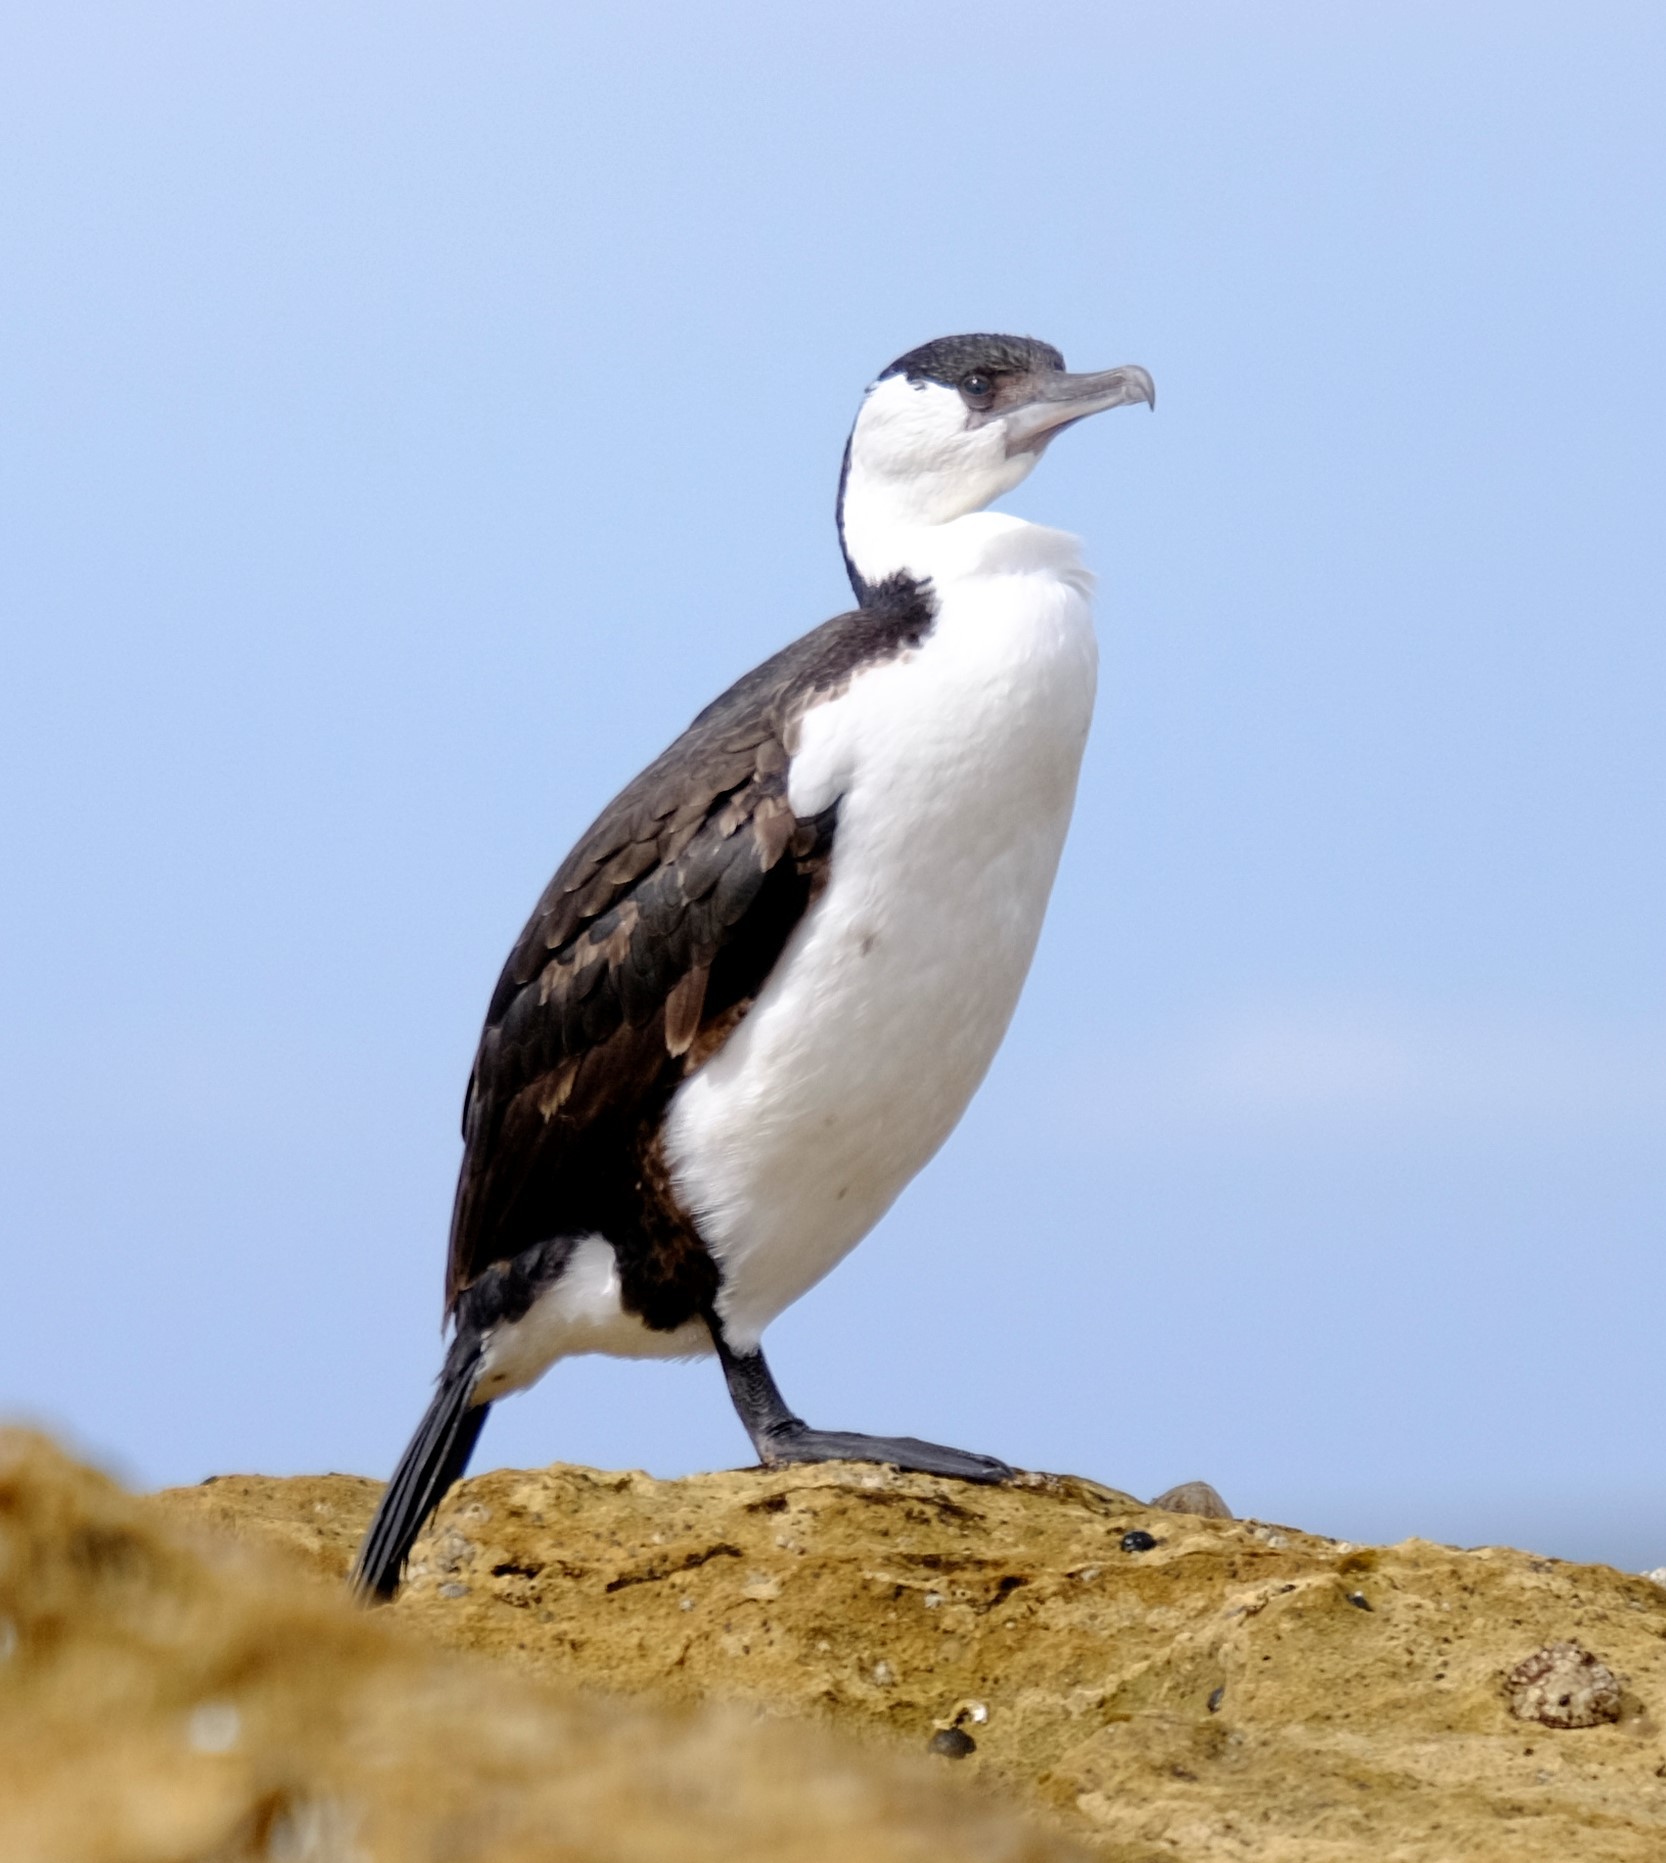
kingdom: Animalia
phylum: Chordata
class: Aves
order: Suliformes
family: Phalacrocoracidae
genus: Phalacrocorax
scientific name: Phalacrocorax fuscescens
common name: Black-faced cormorant
